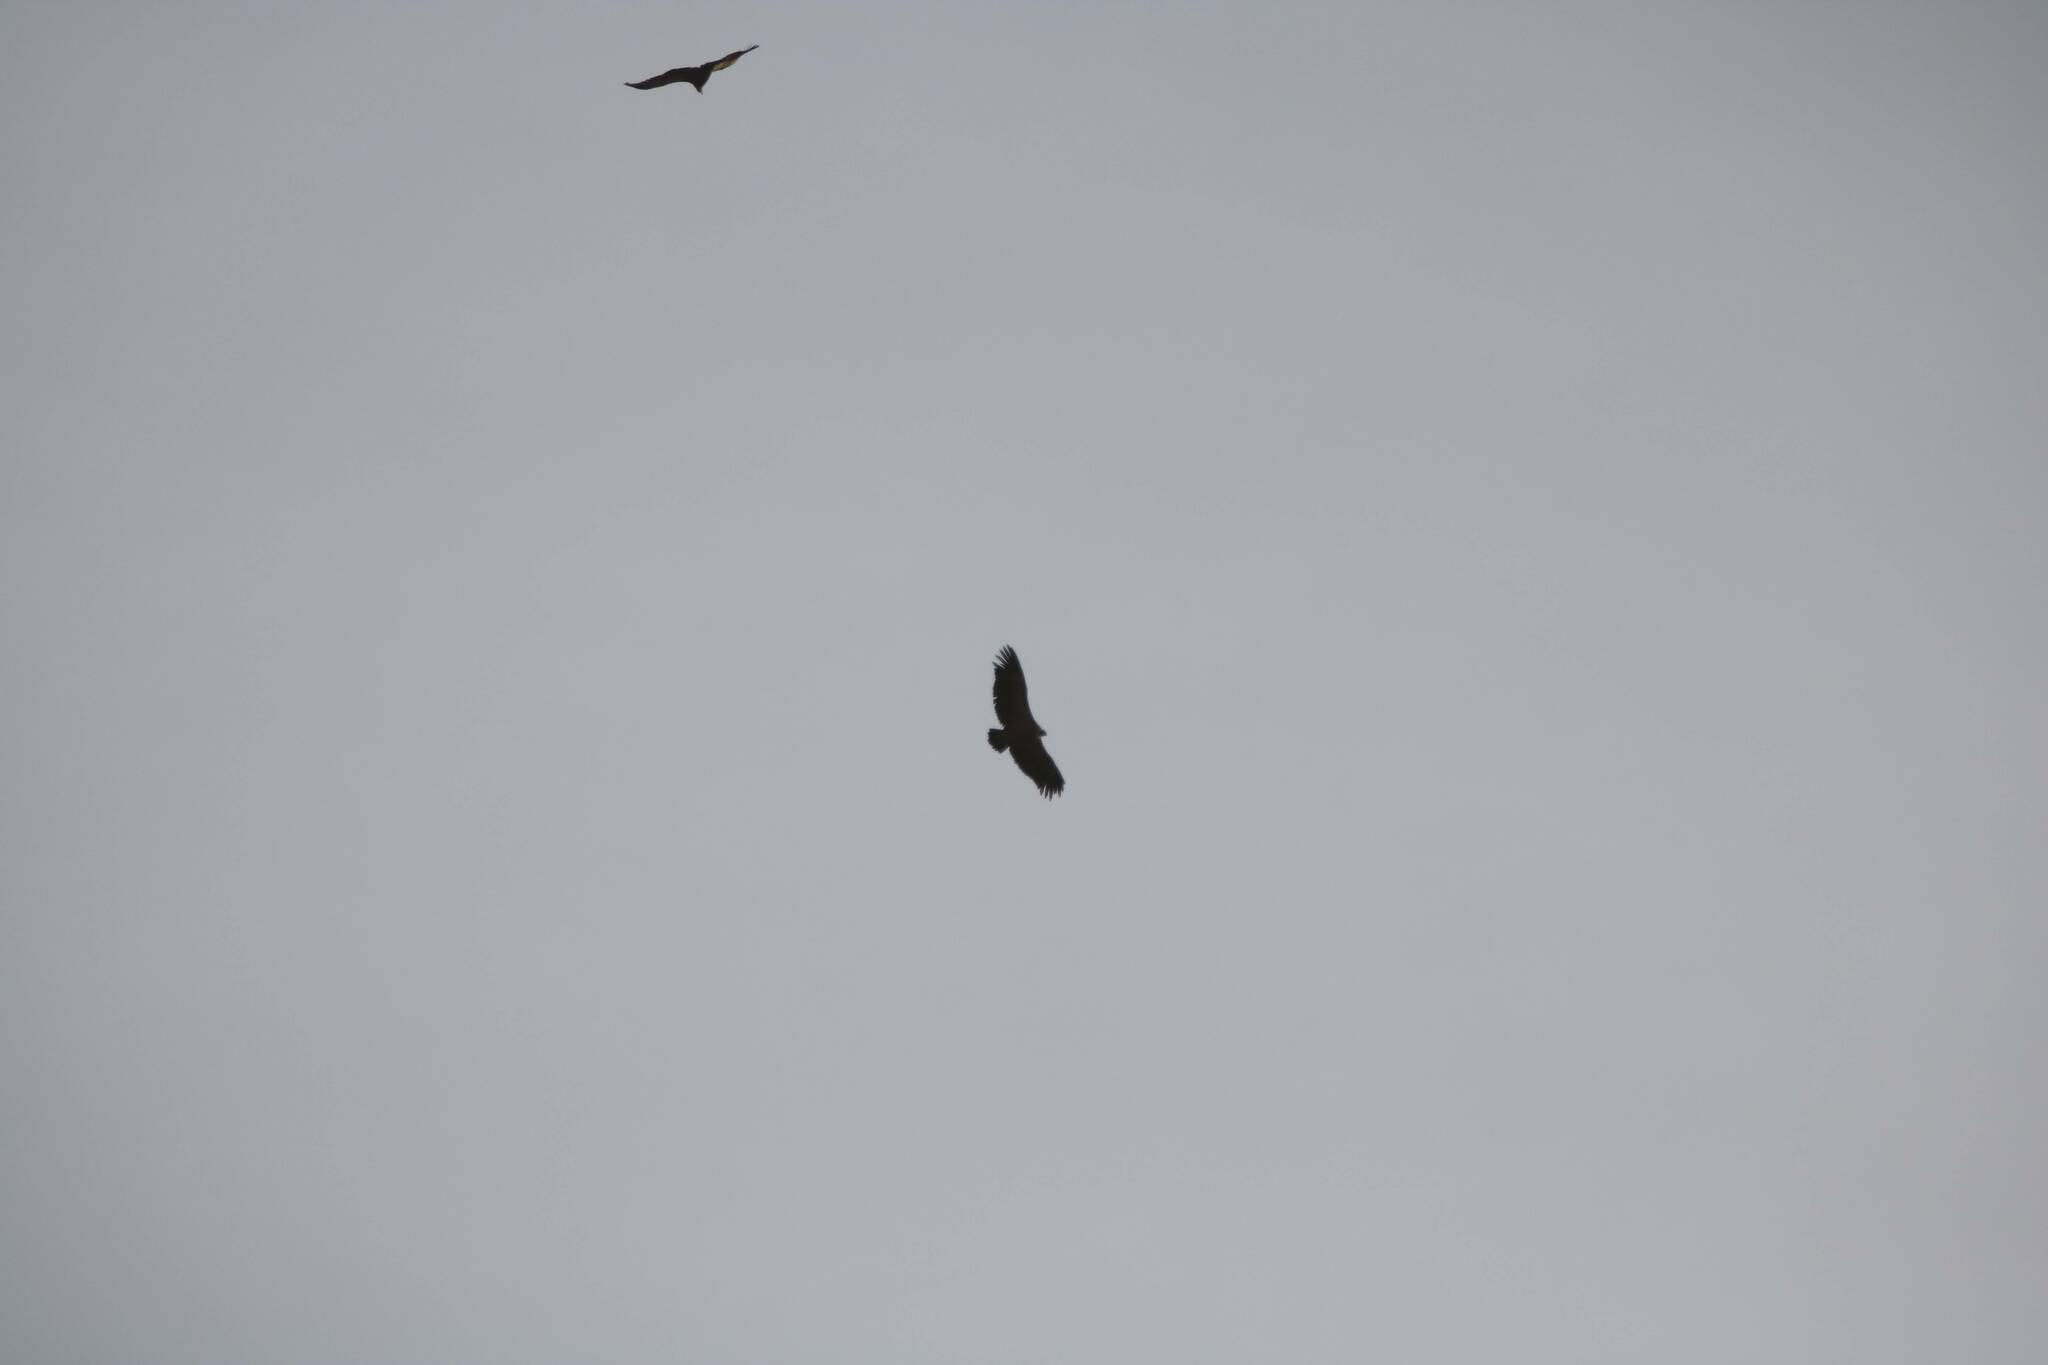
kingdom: Animalia
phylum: Chordata
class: Aves
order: Accipitriformes
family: Accipitridae
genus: Gyps
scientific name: Gyps fulvus
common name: Griffon vulture
